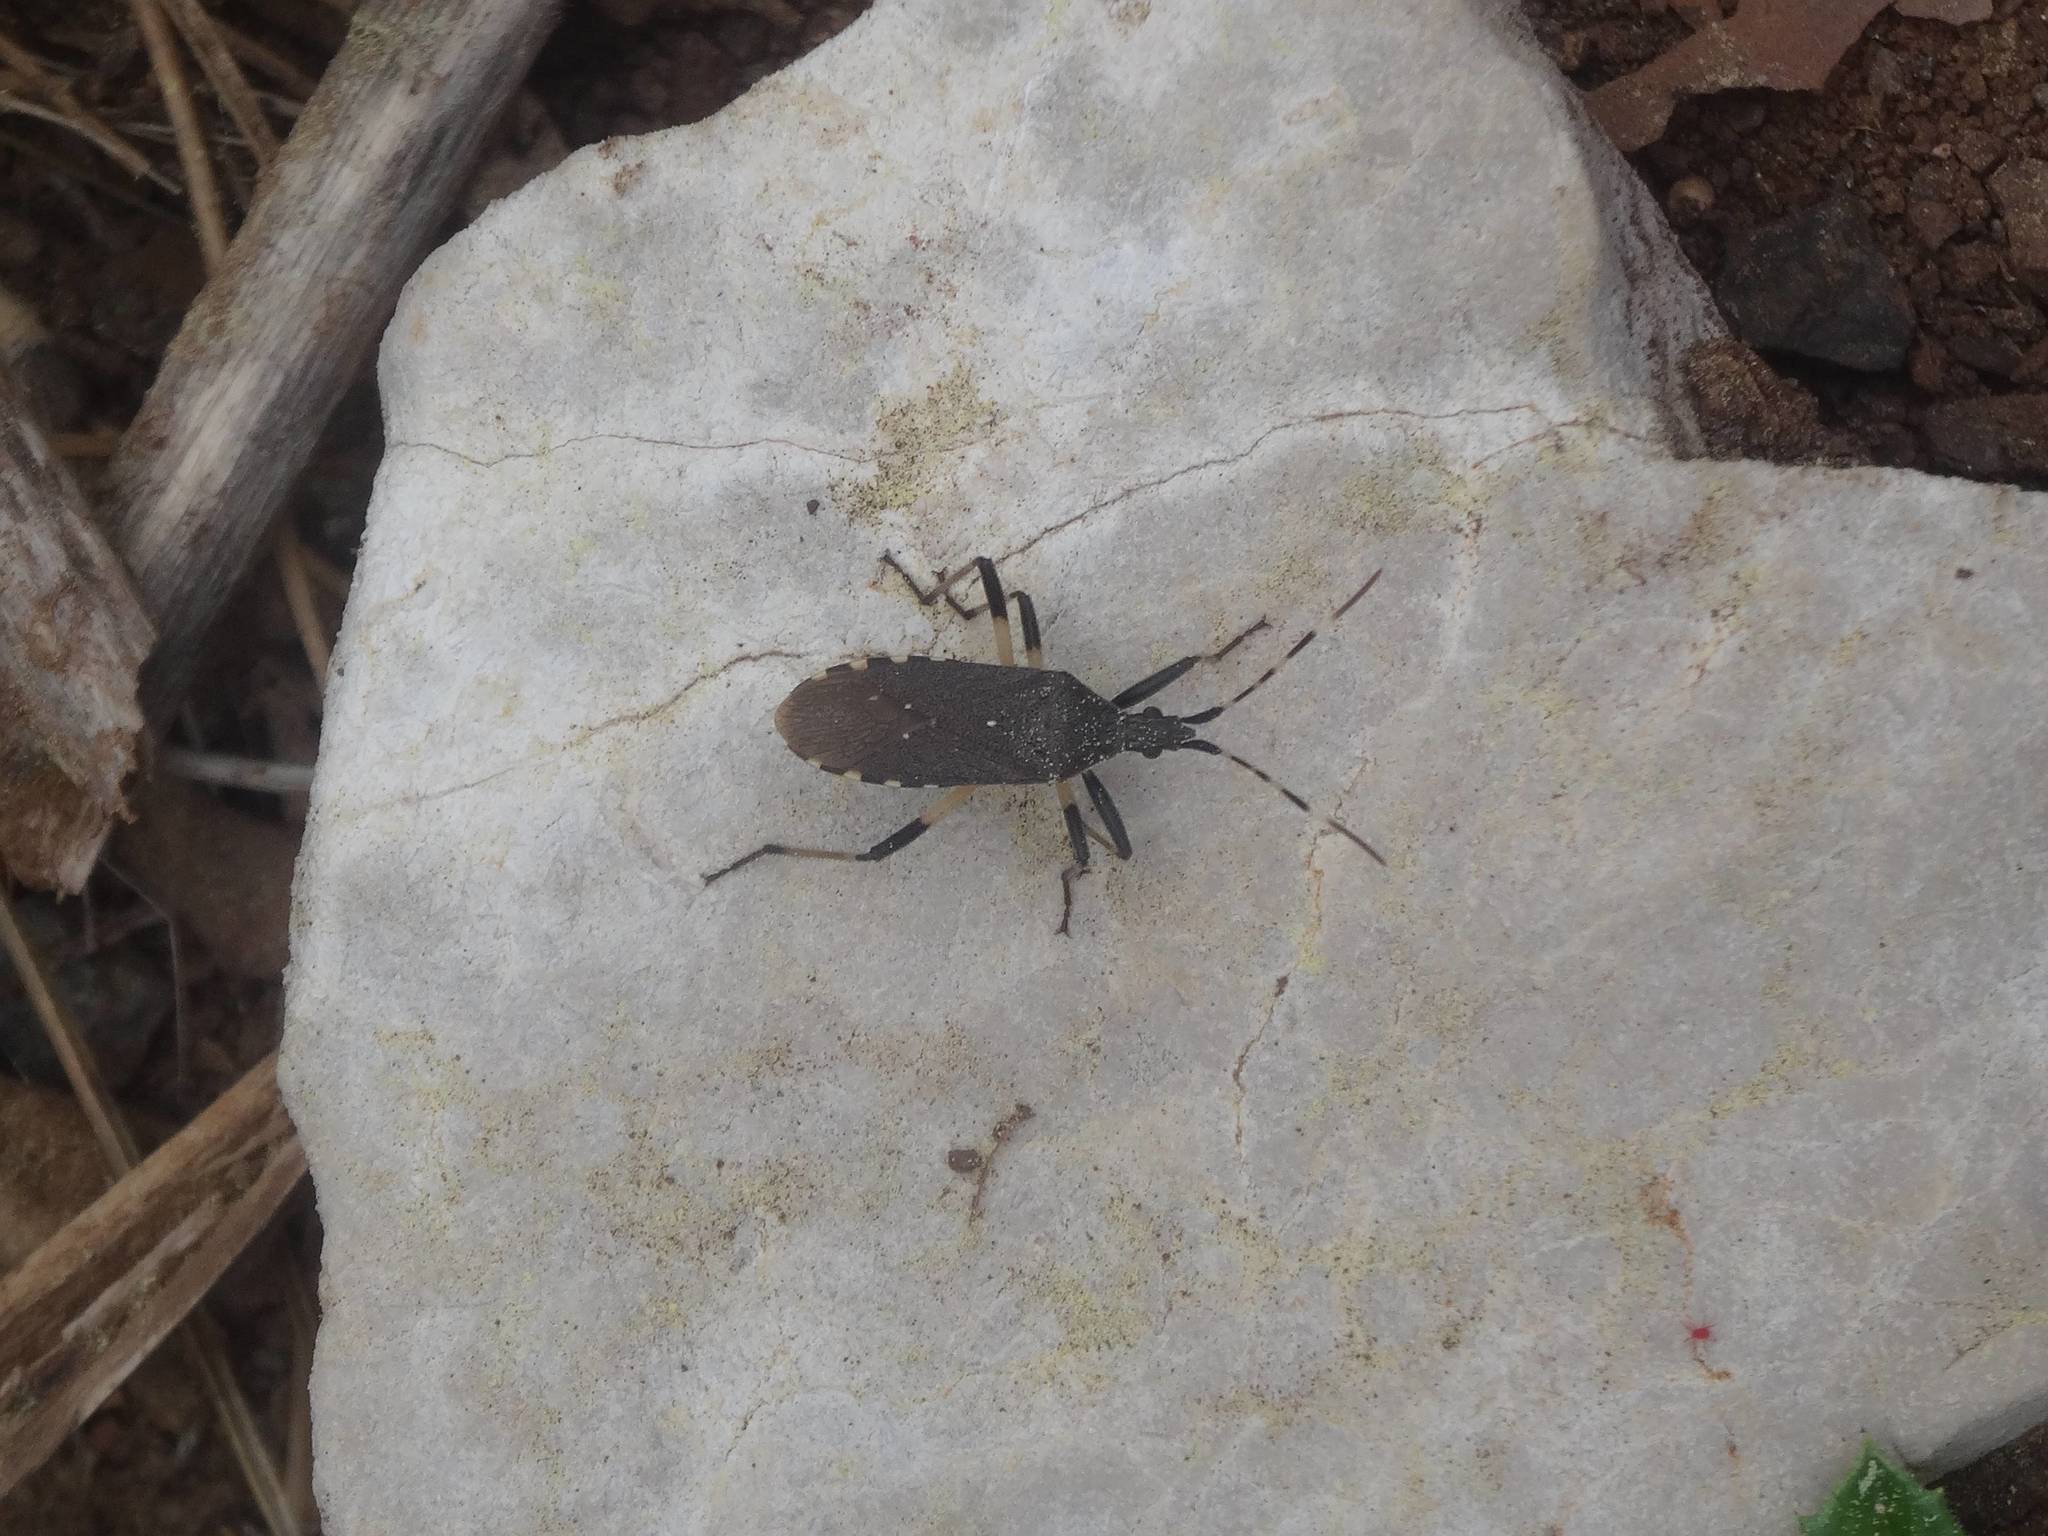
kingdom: Animalia
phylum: Arthropoda
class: Insecta
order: Hemiptera
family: Stenocephalidae
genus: Dicranocephalus
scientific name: Dicranocephalus agilis
